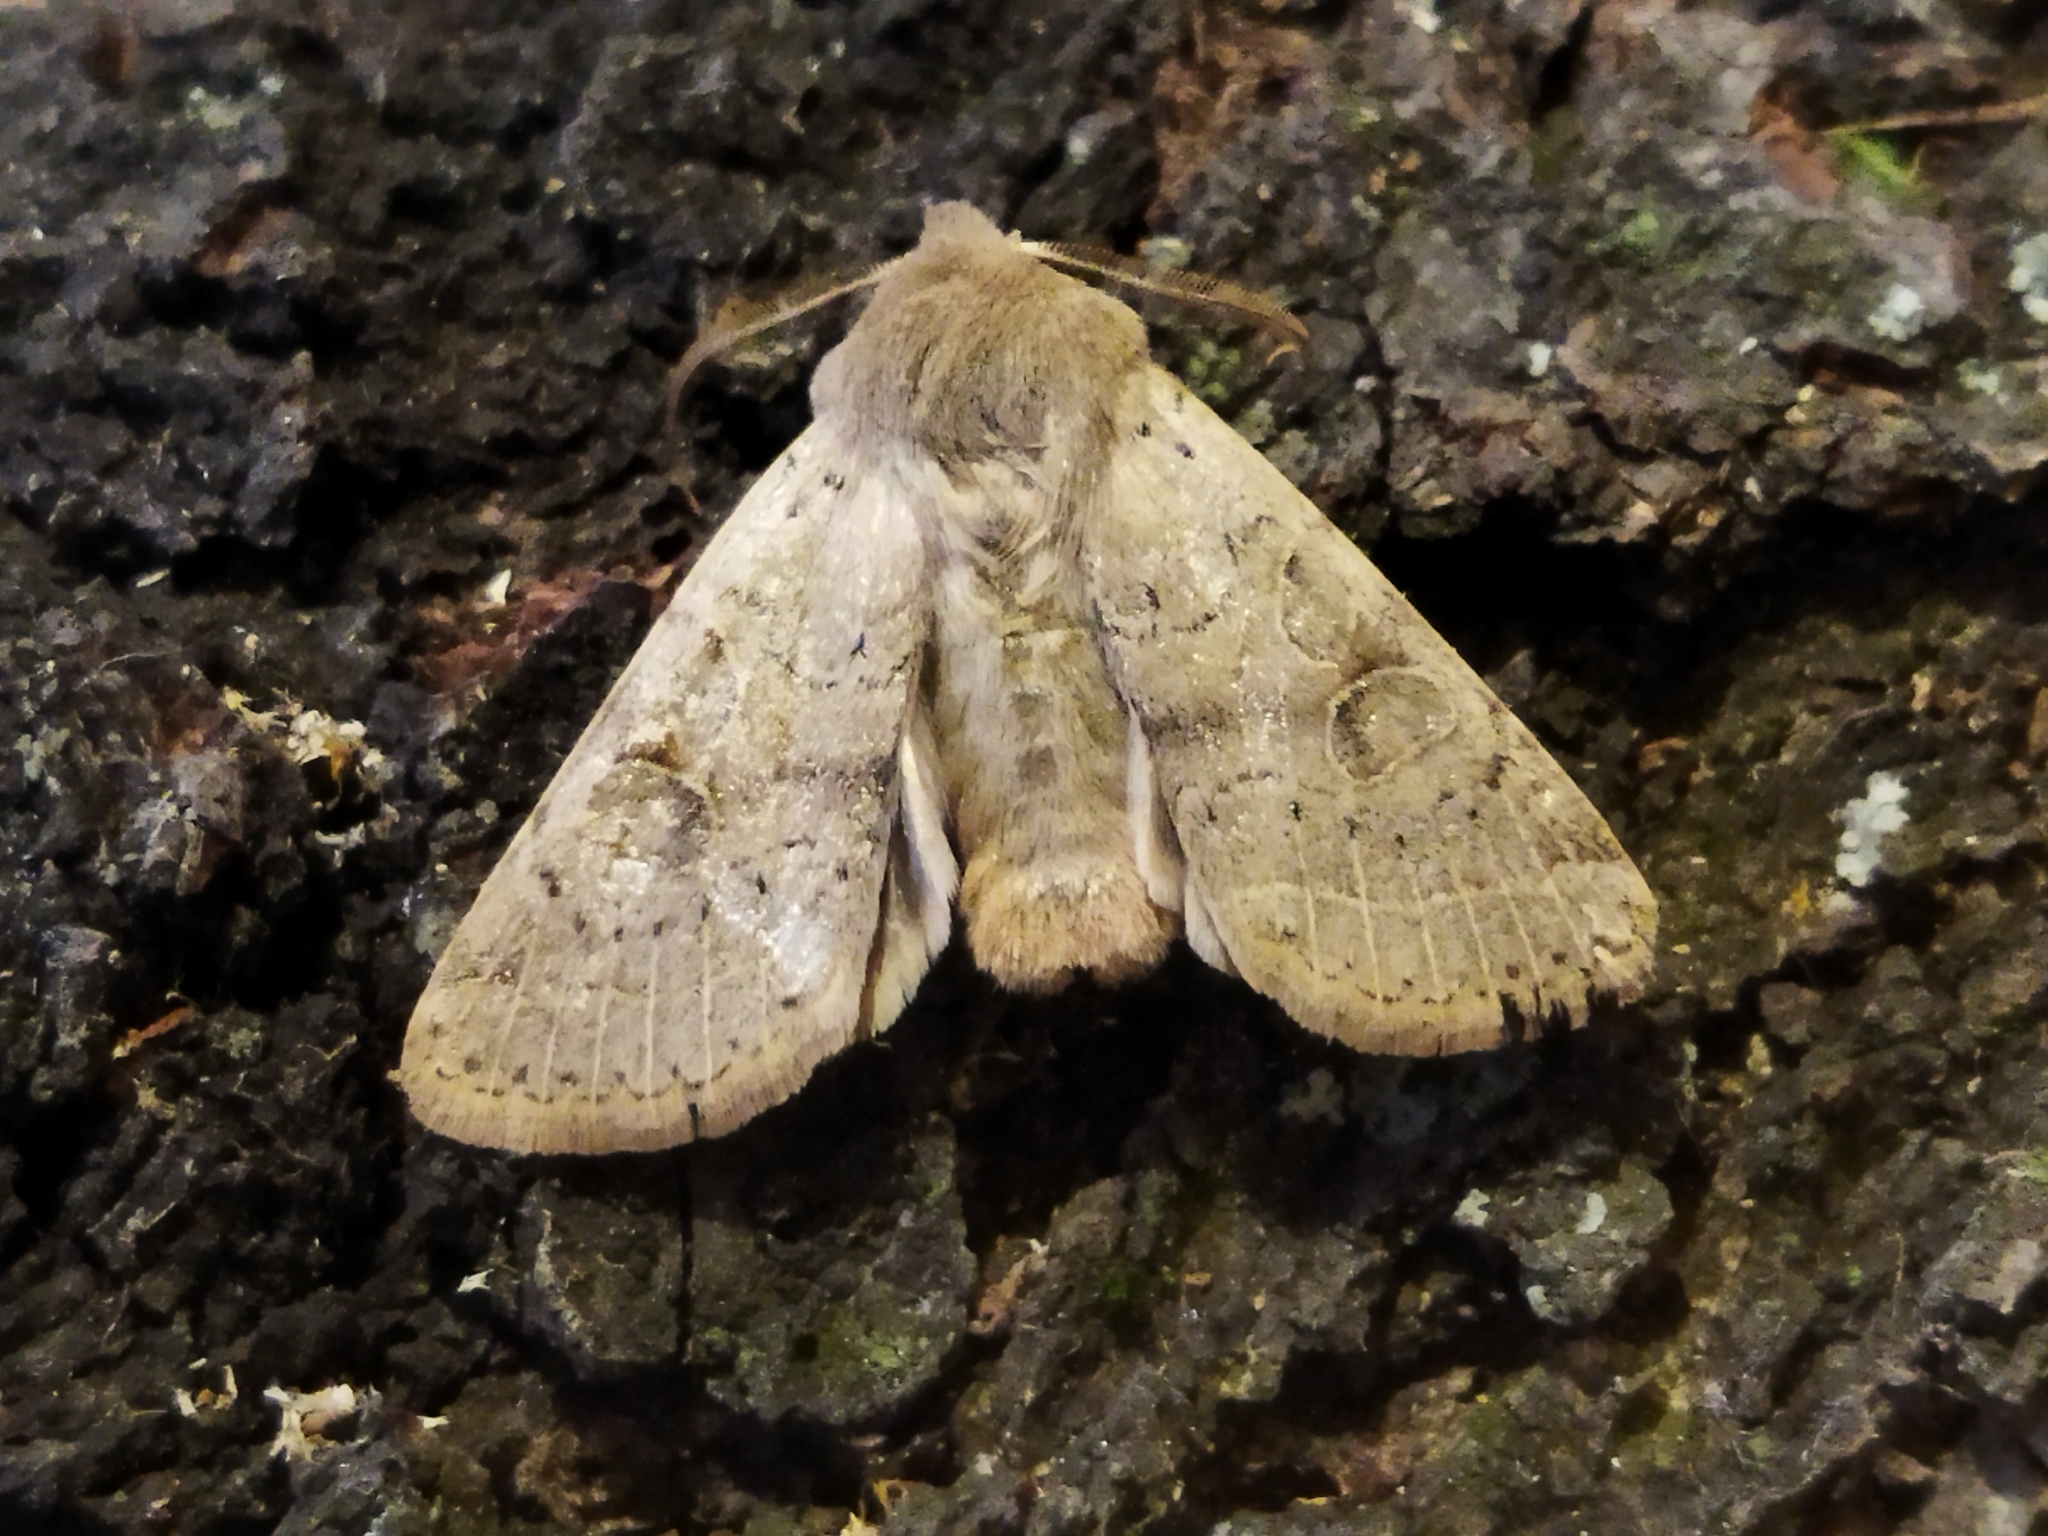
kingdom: Animalia
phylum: Arthropoda
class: Insecta
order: Lepidoptera
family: Noctuidae
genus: Orthosia
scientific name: Orthosia cerasi
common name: Common quaker
